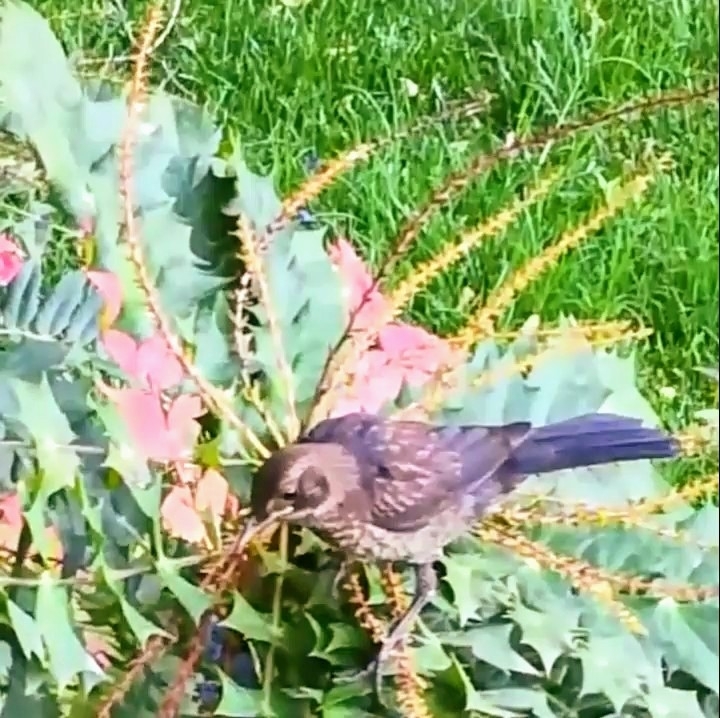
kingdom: Animalia
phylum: Chordata
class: Aves
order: Passeriformes
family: Turdidae
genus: Turdus
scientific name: Turdus merula
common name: Common blackbird
